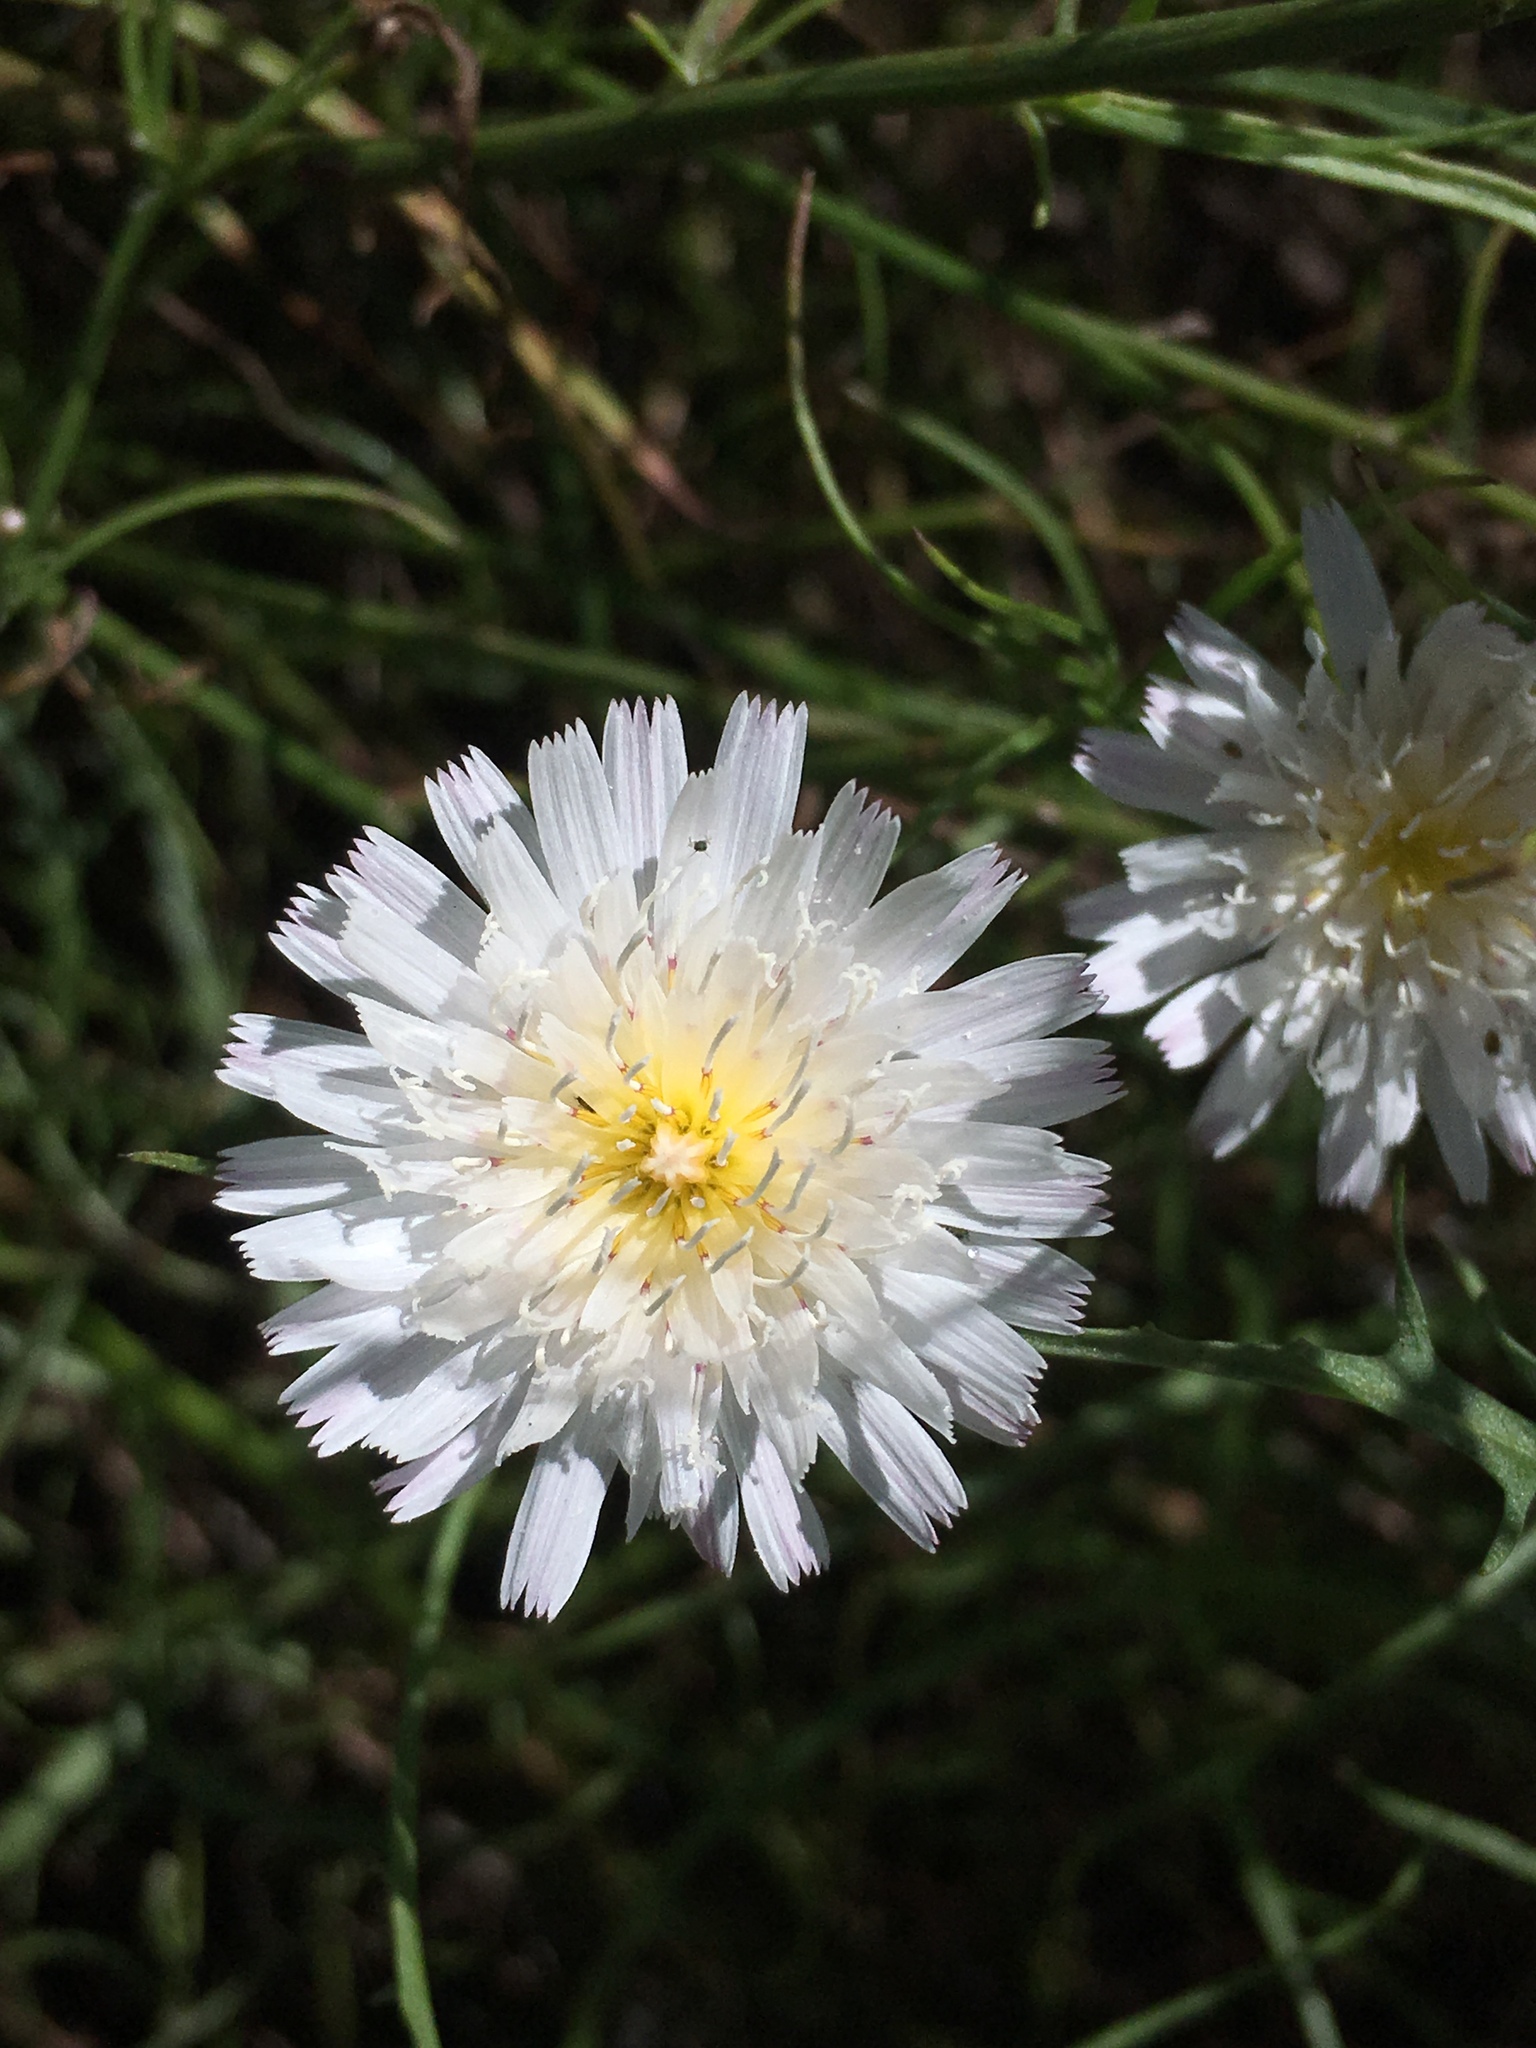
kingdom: Plantae
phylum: Tracheophyta
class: Magnoliopsida
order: Asterales
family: Asteraceae
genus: Malacothrix
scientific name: Malacothrix saxatilis
